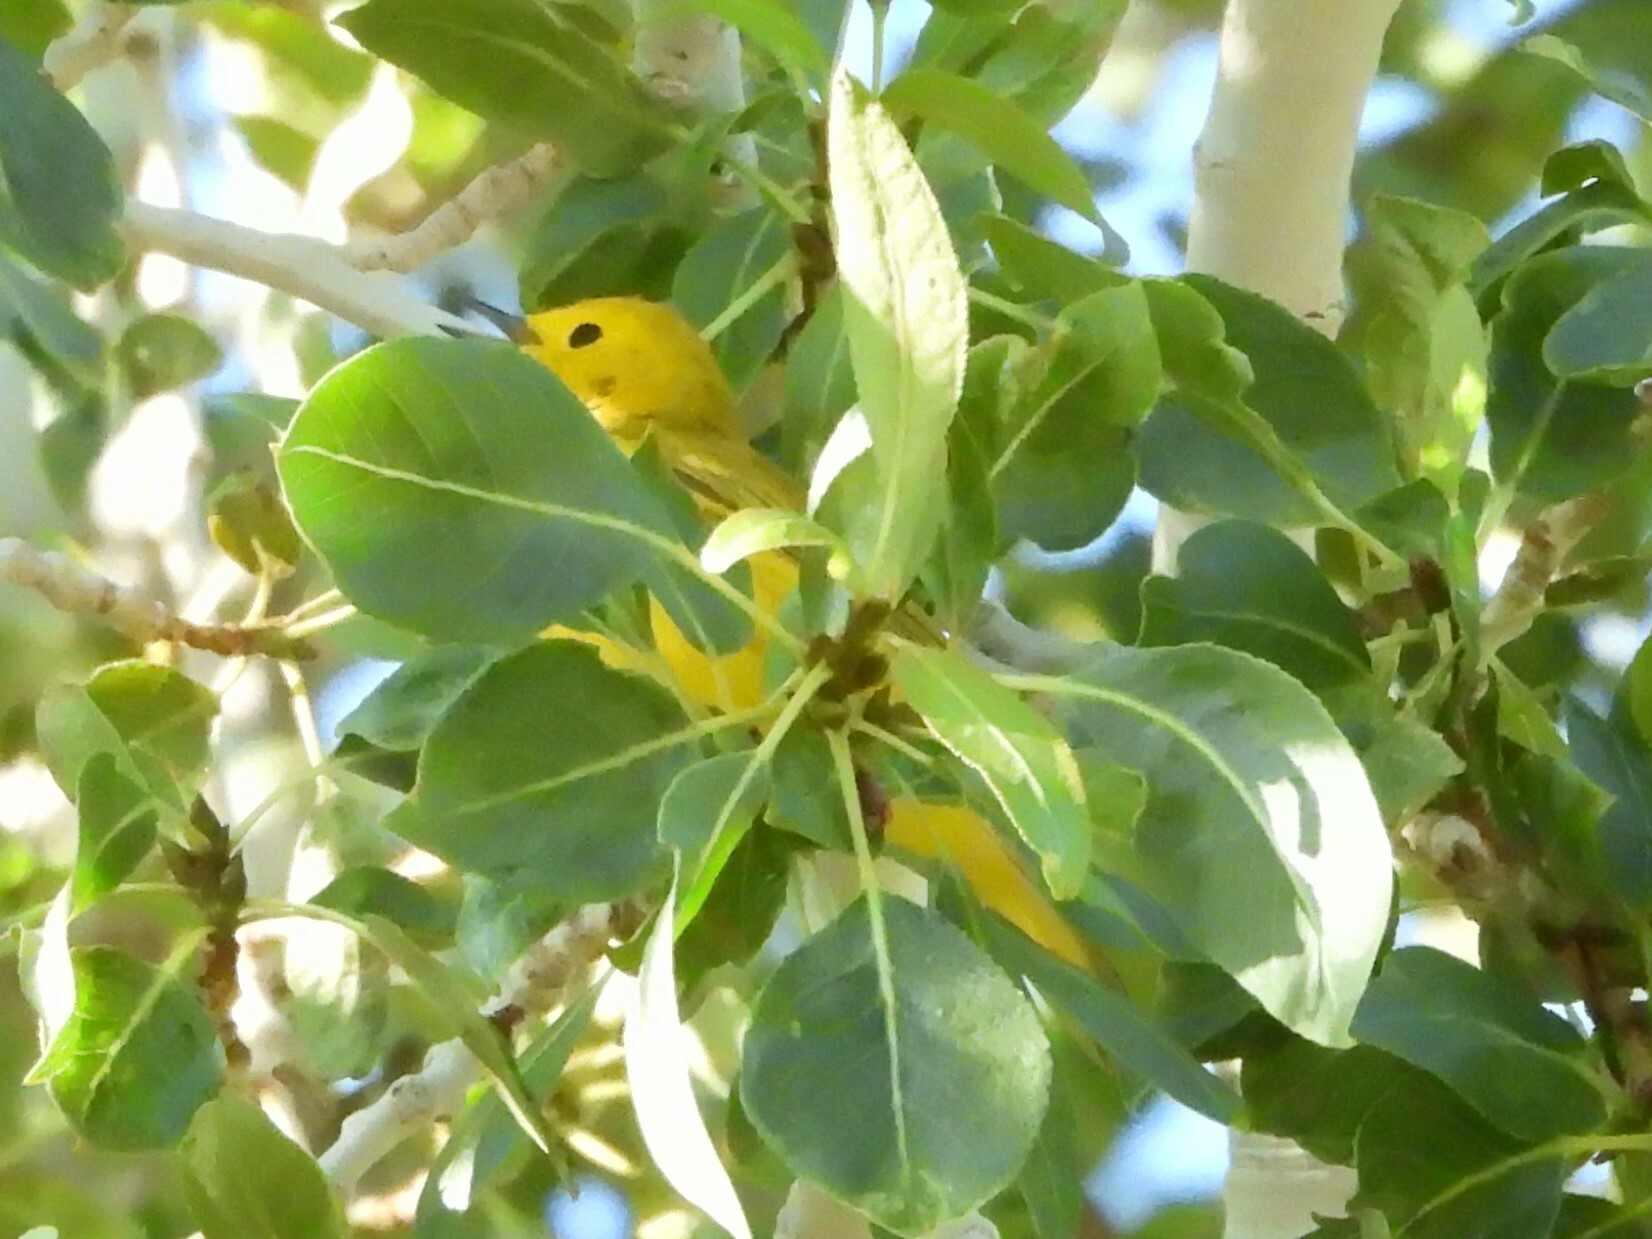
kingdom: Animalia
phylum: Chordata
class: Aves
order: Passeriformes
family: Parulidae
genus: Setophaga
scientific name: Setophaga petechia
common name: Yellow warbler
